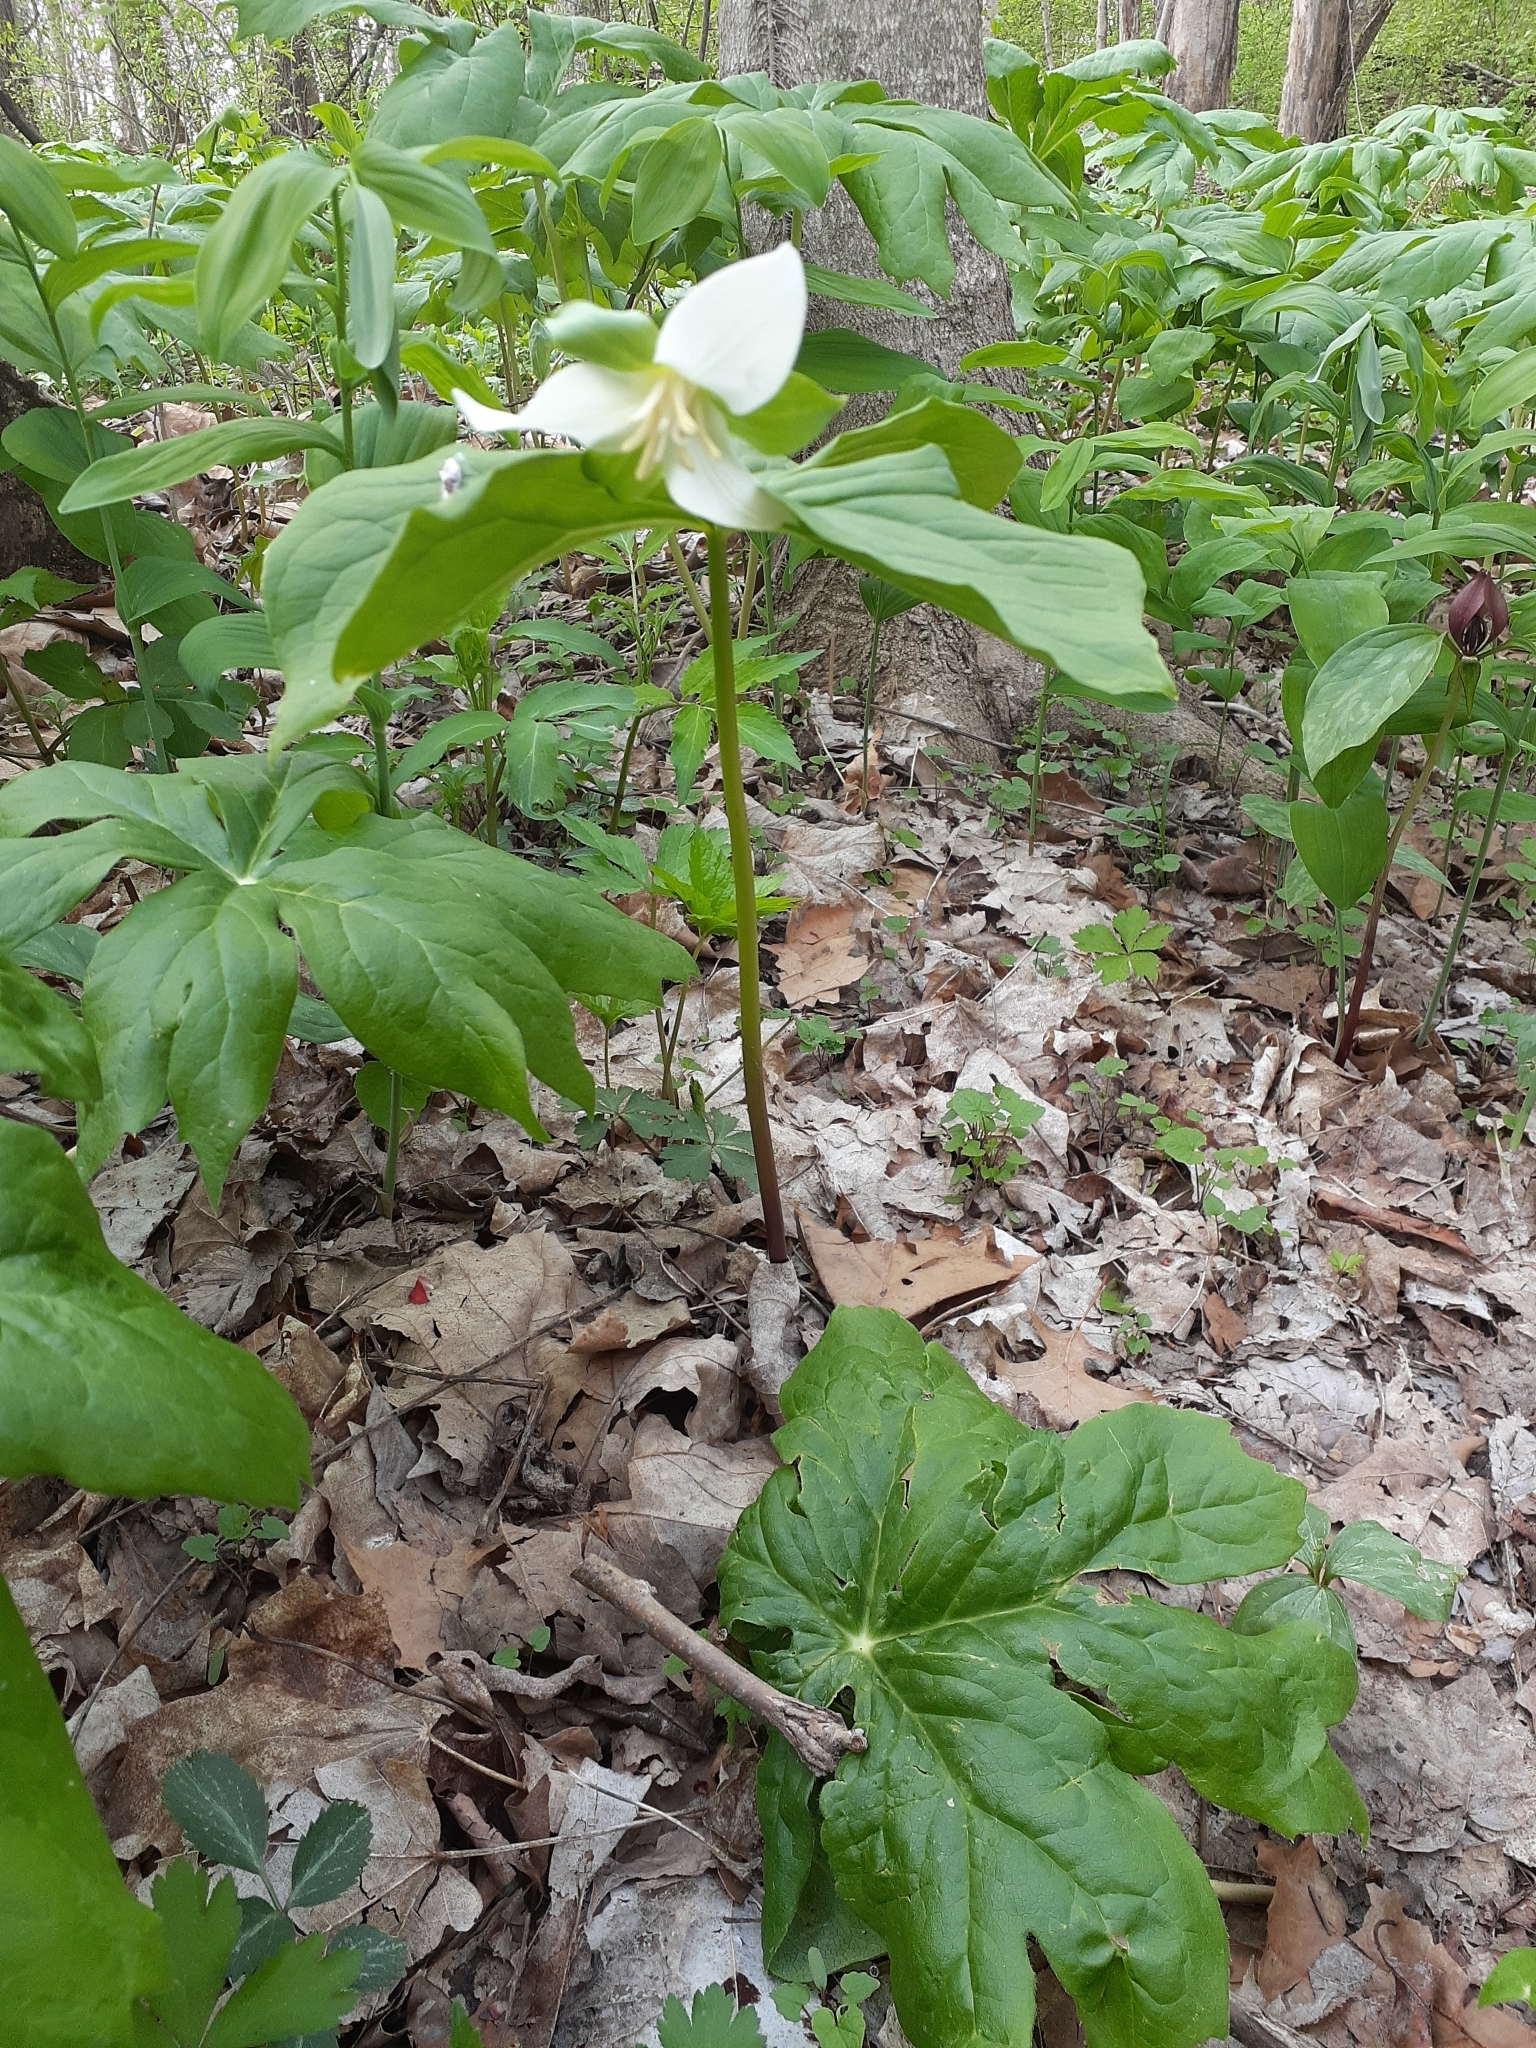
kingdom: Plantae
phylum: Tracheophyta
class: Liliopsida
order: Liliales
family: Melanthiaceae
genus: Trillium
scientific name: Trillium flexipes
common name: Drooping trillium
